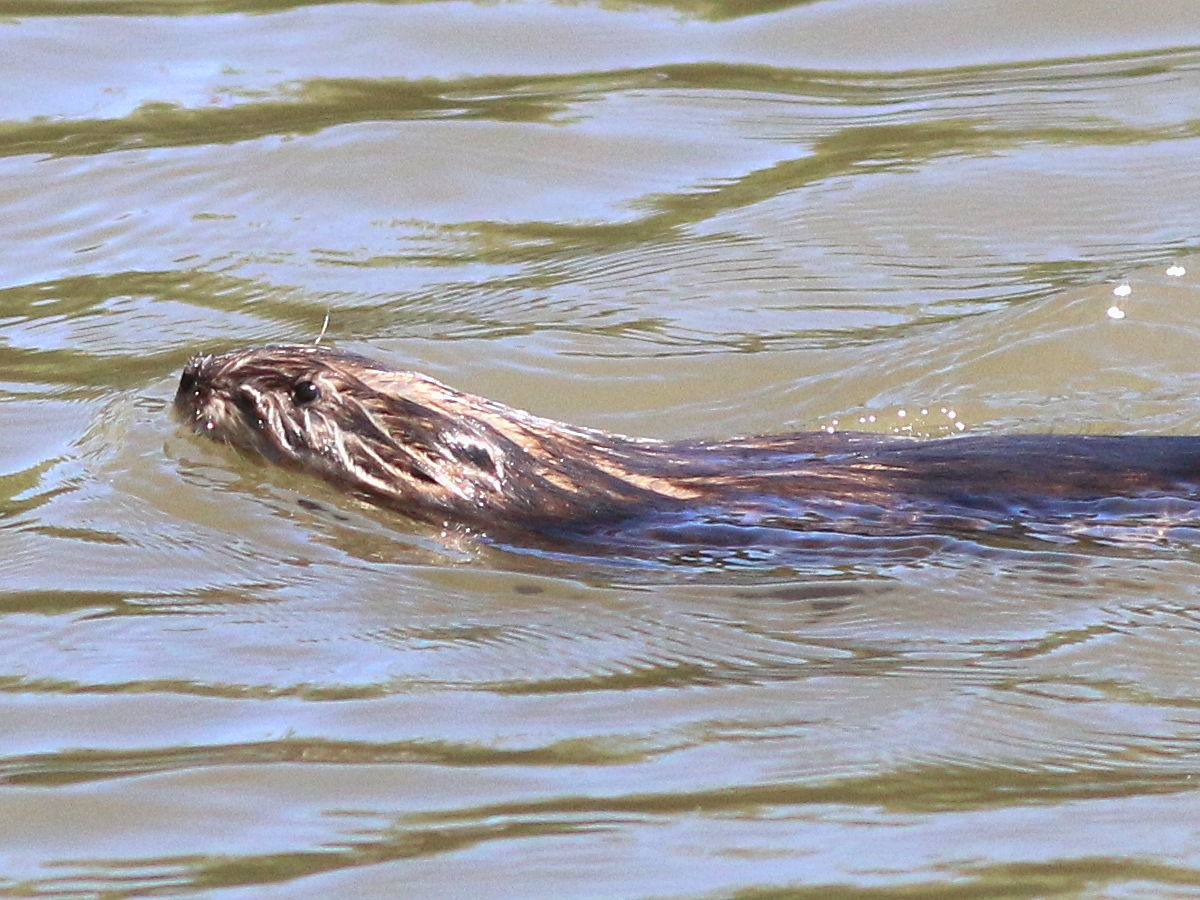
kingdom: Animalia
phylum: Chordata
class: Mammalia
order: Rodentia
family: Cricetidae
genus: Ondatra
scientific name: Ondatra zibethicus
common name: Muskrat
